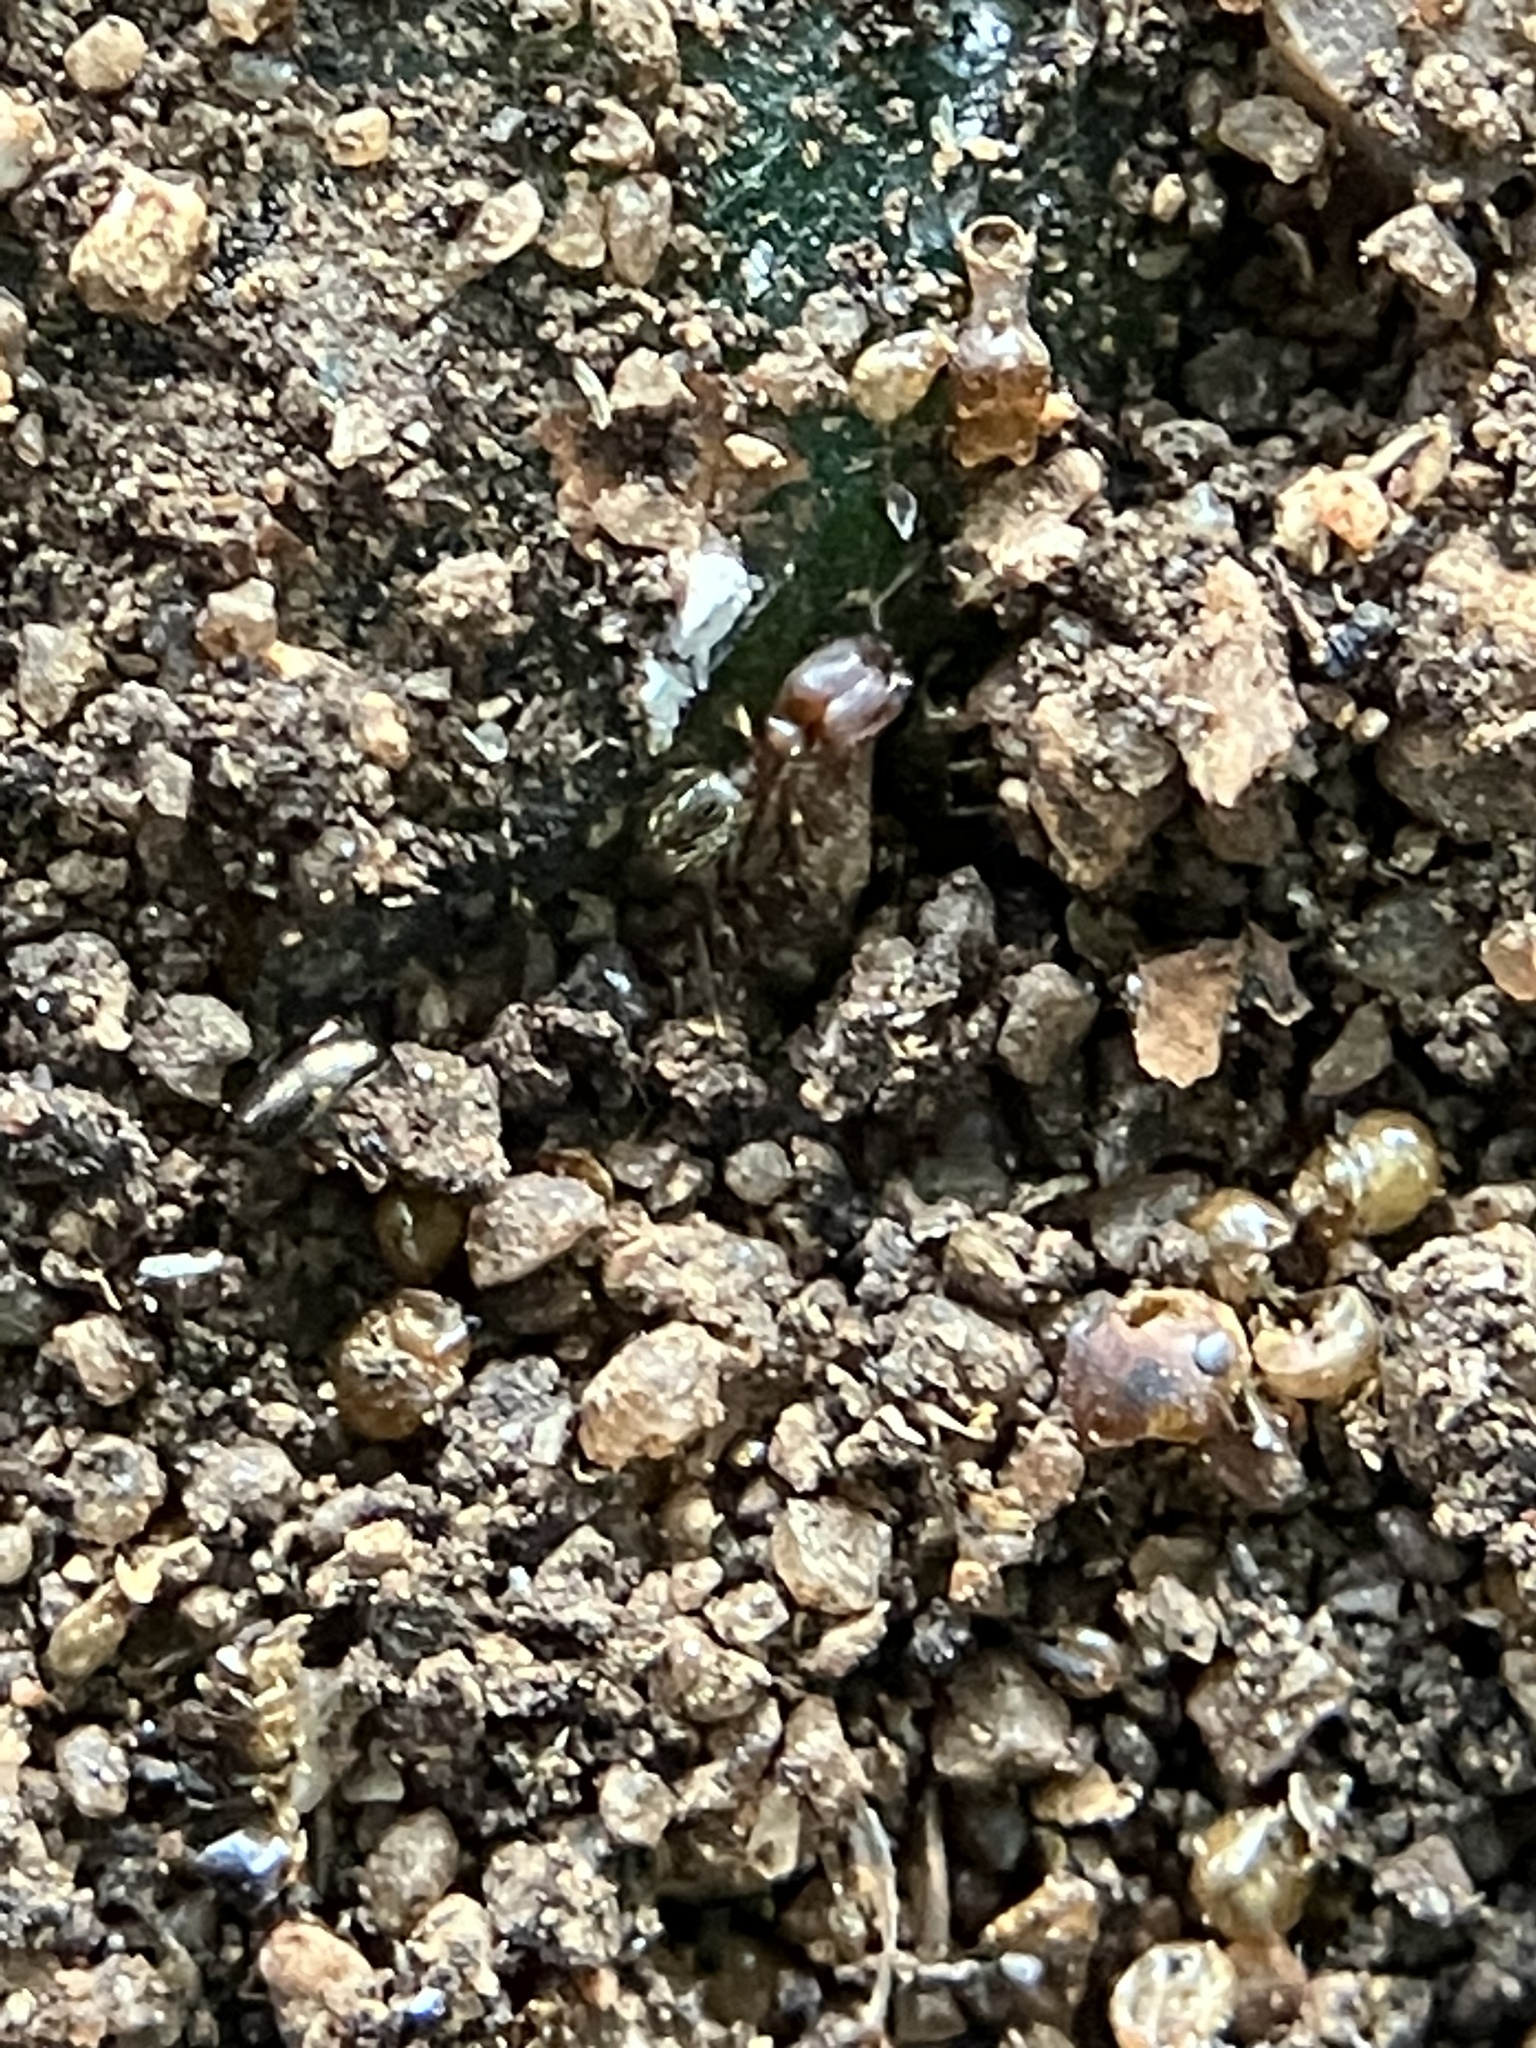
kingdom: Animalia
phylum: Arthropoda
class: Insecta
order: Hymenoptera
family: Formicidae
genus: Pheidole
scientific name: Pheidole parva
